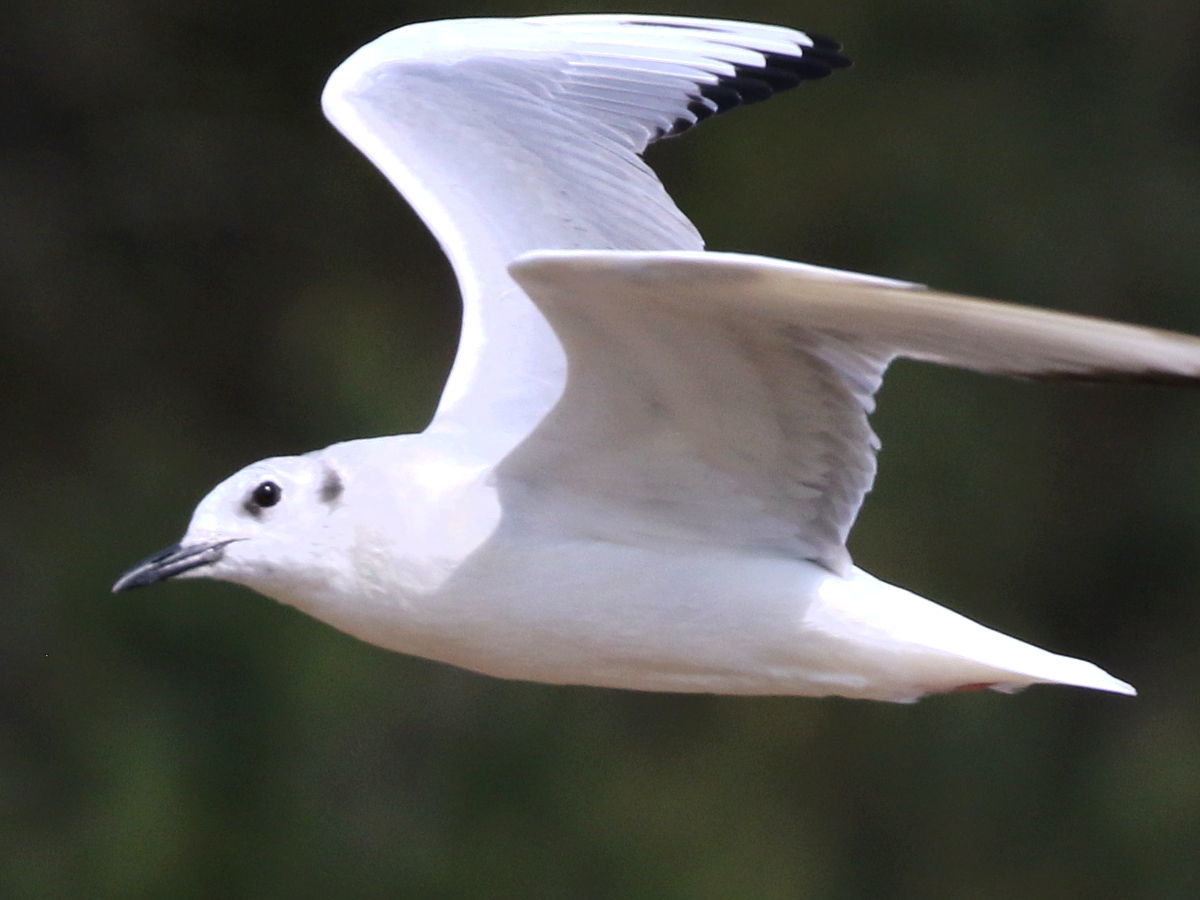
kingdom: Animalia
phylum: Chordata
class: Aves
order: Charadriiformes
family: Laridae
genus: Chroicocephalus
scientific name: Chroicocephalus philadelphia
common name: Bonaparte's gull
